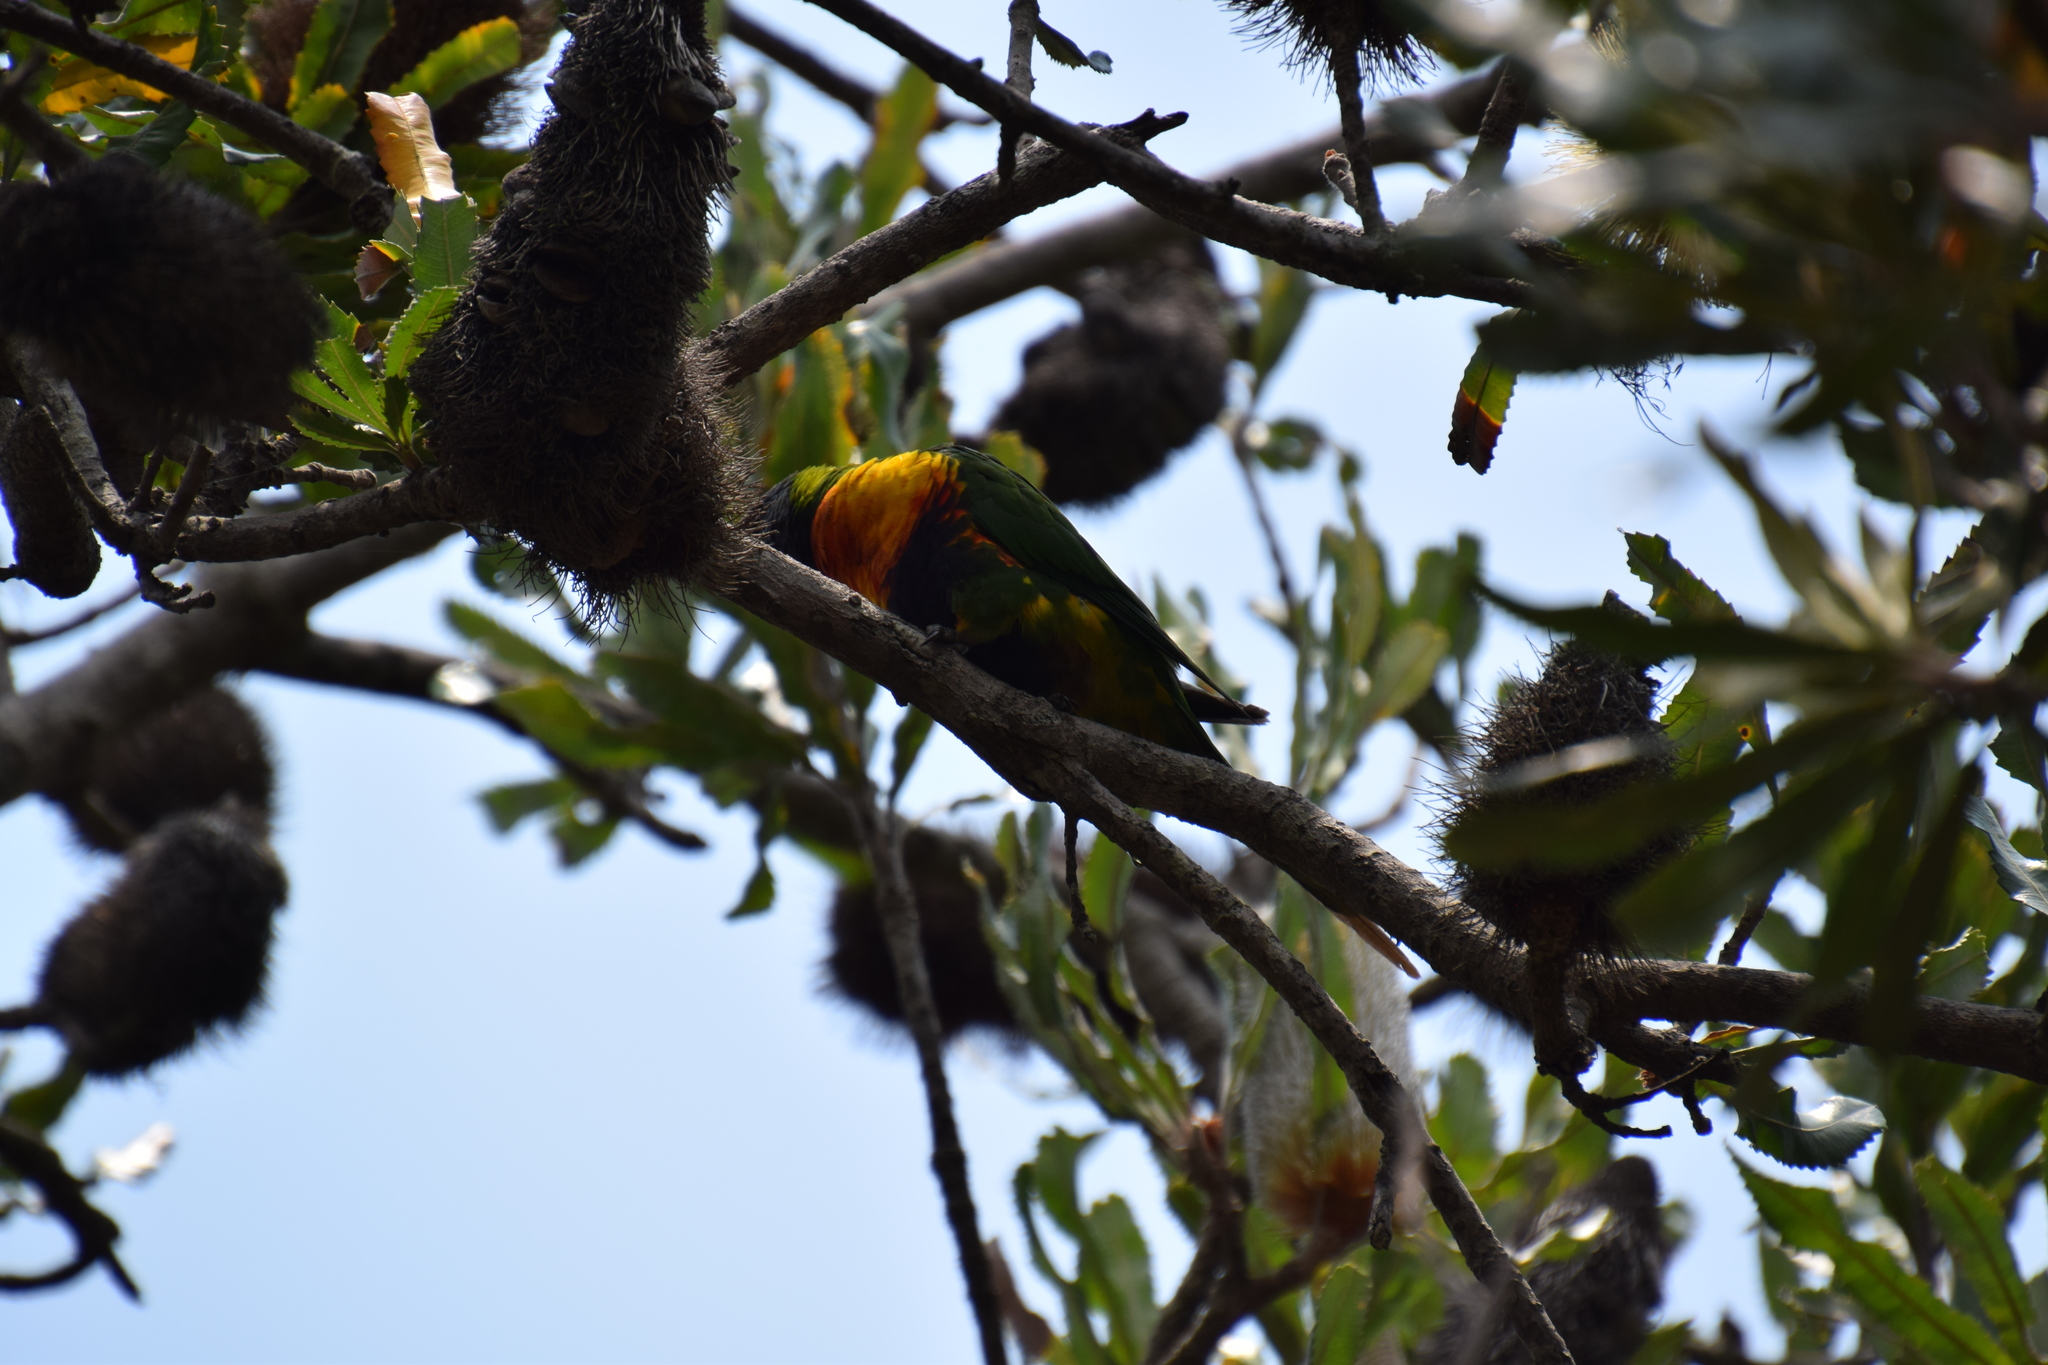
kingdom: Animalia
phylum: Chordata
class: Aves
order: Psittaciformes
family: Psittacidae
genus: Trichoglossus
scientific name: Trichoglossus haematodus
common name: Coconut lorikeet
